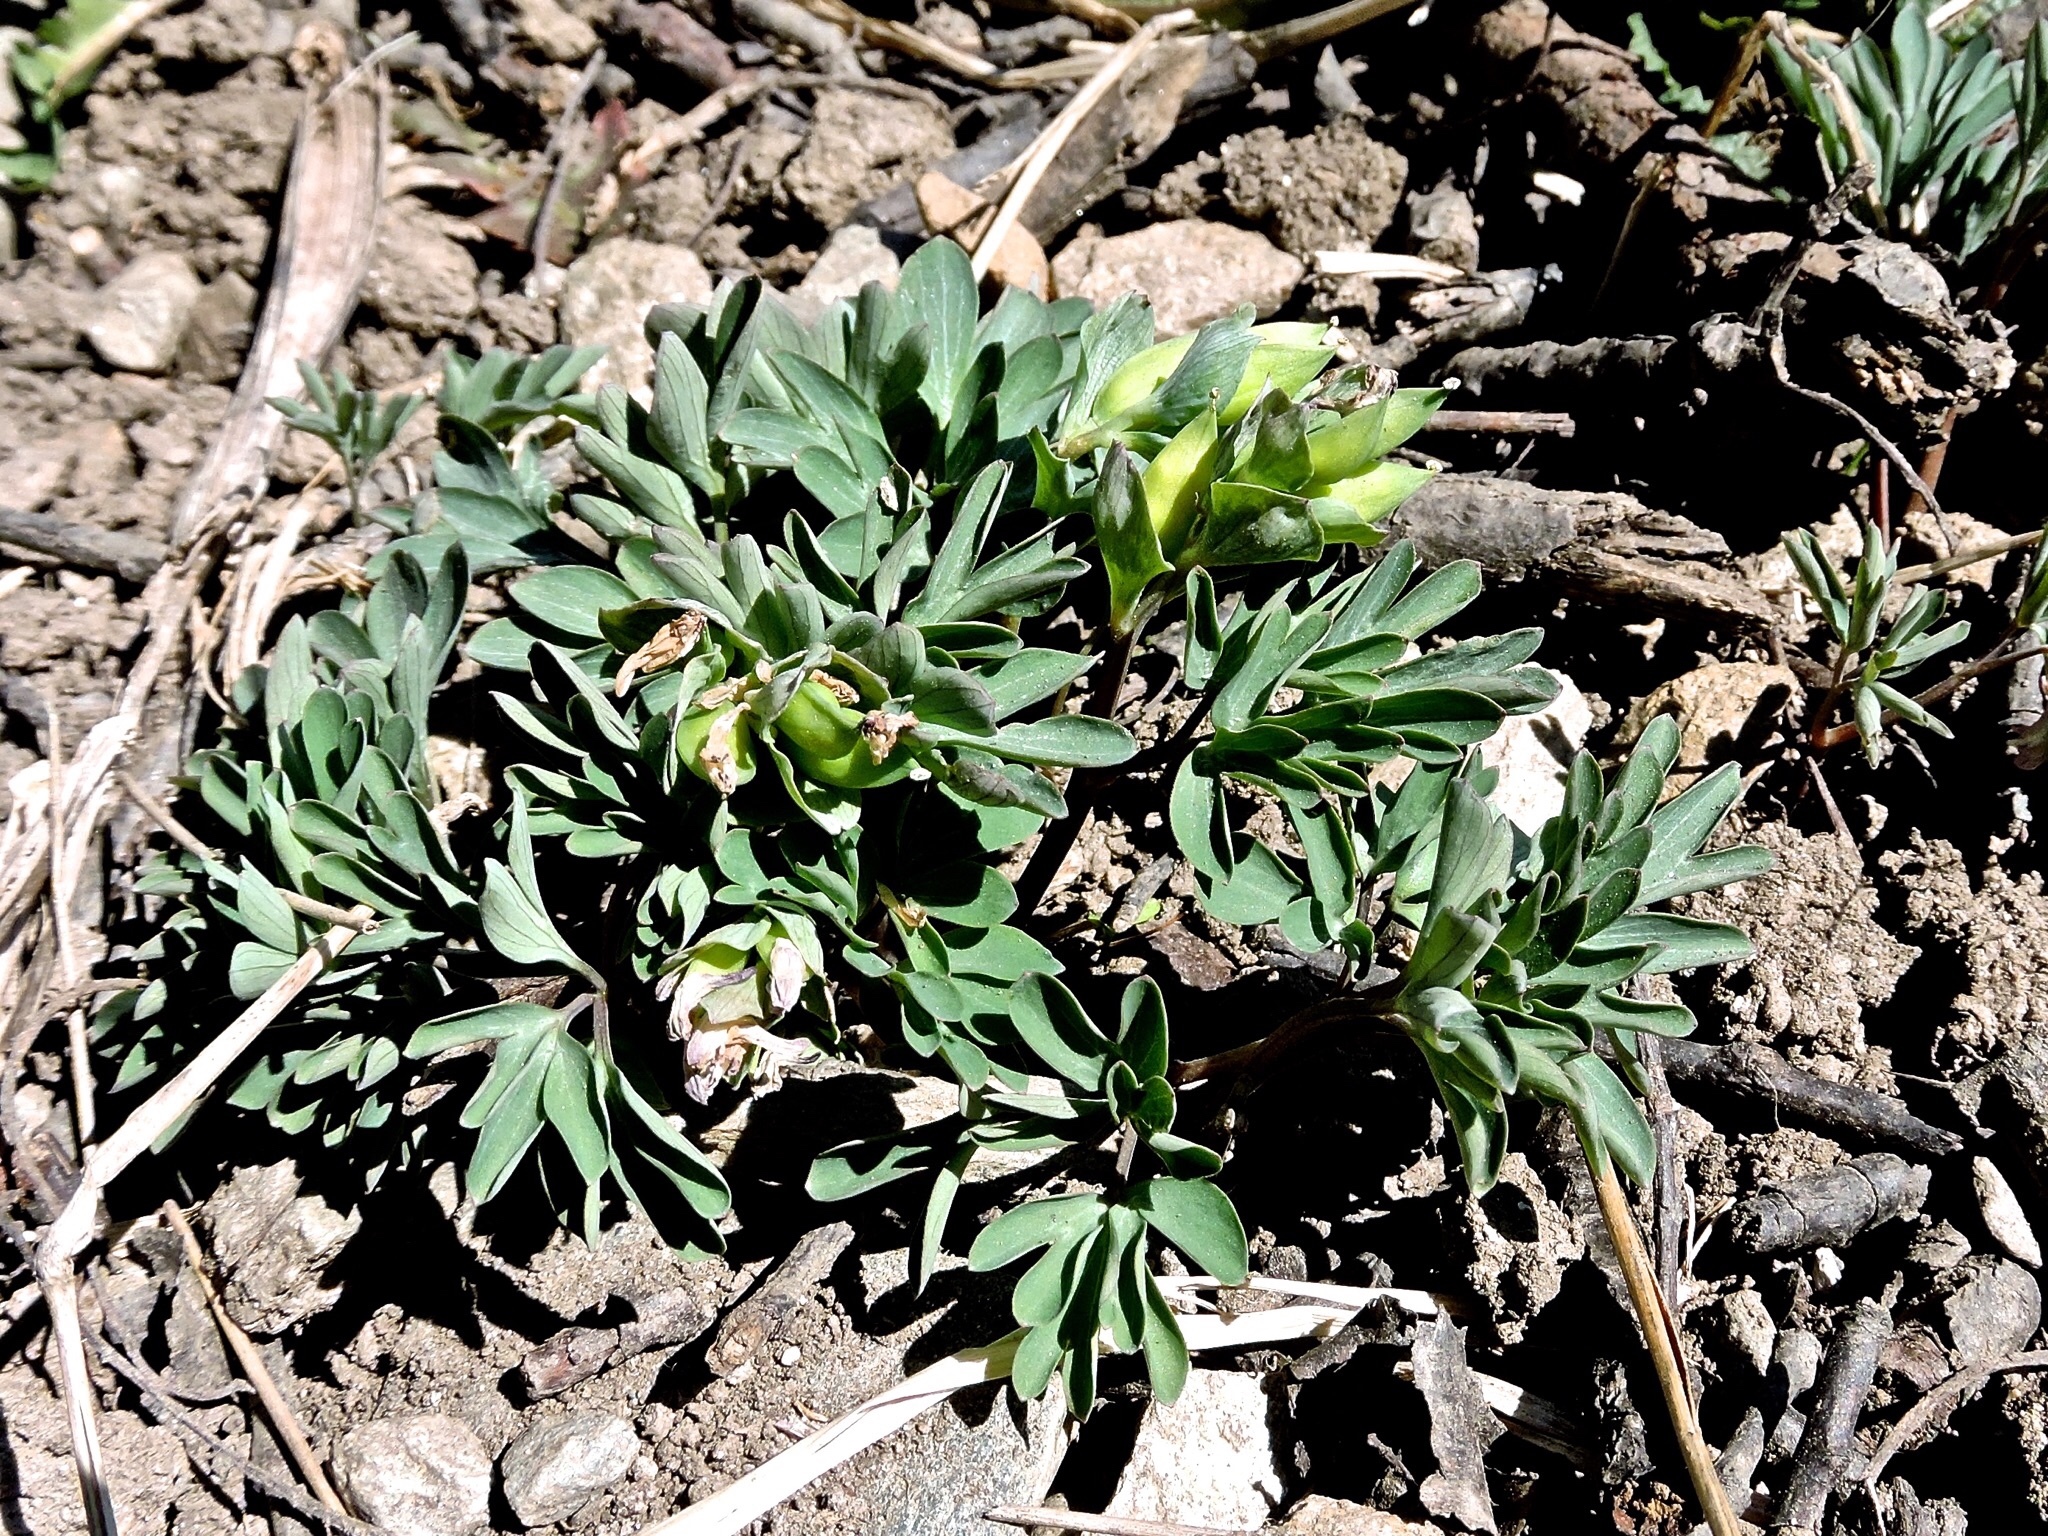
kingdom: Plantae
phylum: Tracheophyta
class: Magnoliopsida
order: Ranunculales
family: Papaveraceae
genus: Corydalis
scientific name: Corydalis intermedia
